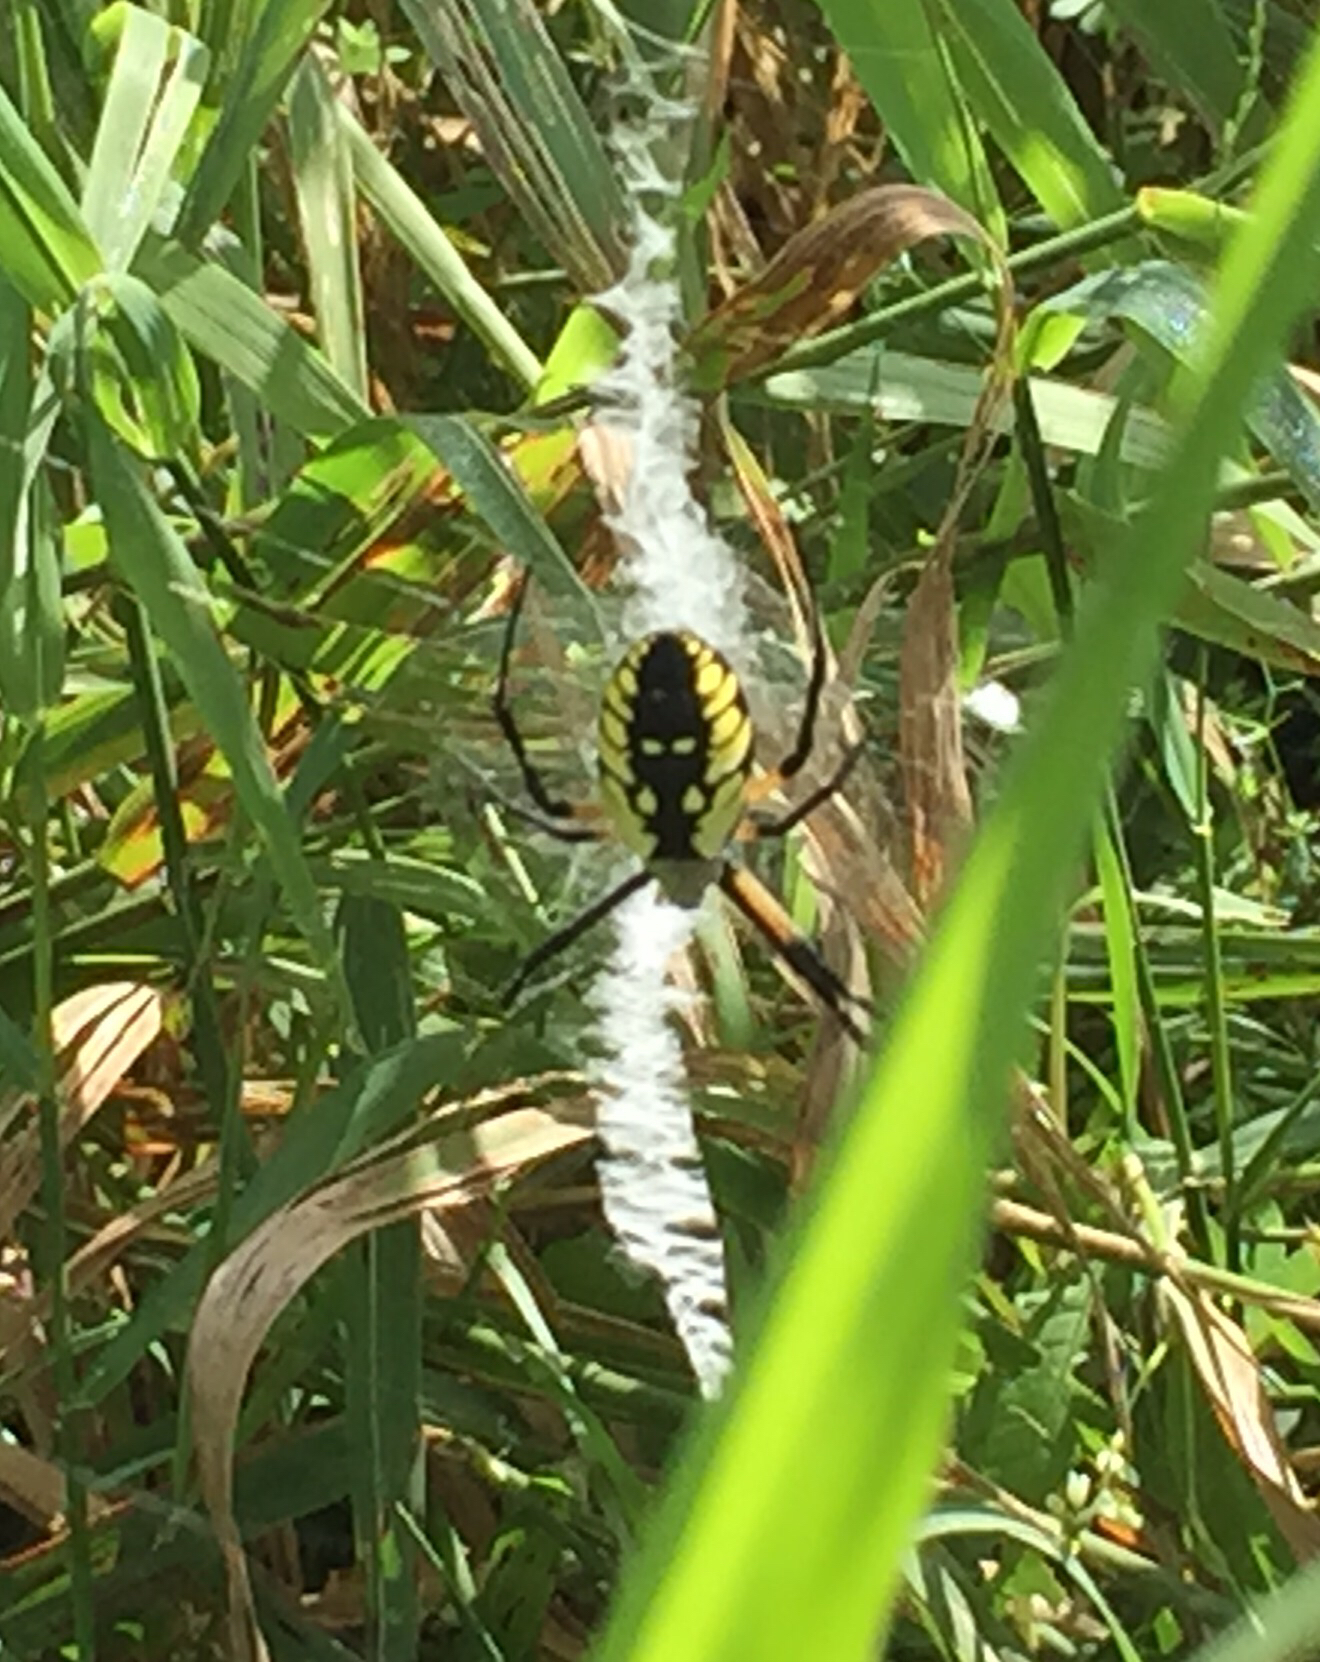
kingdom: Animalia
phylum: Arthropoda
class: Arachnida
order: Araneae
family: Araneidae
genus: Argiope
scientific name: Argiope aurantia
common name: Orb weavers
